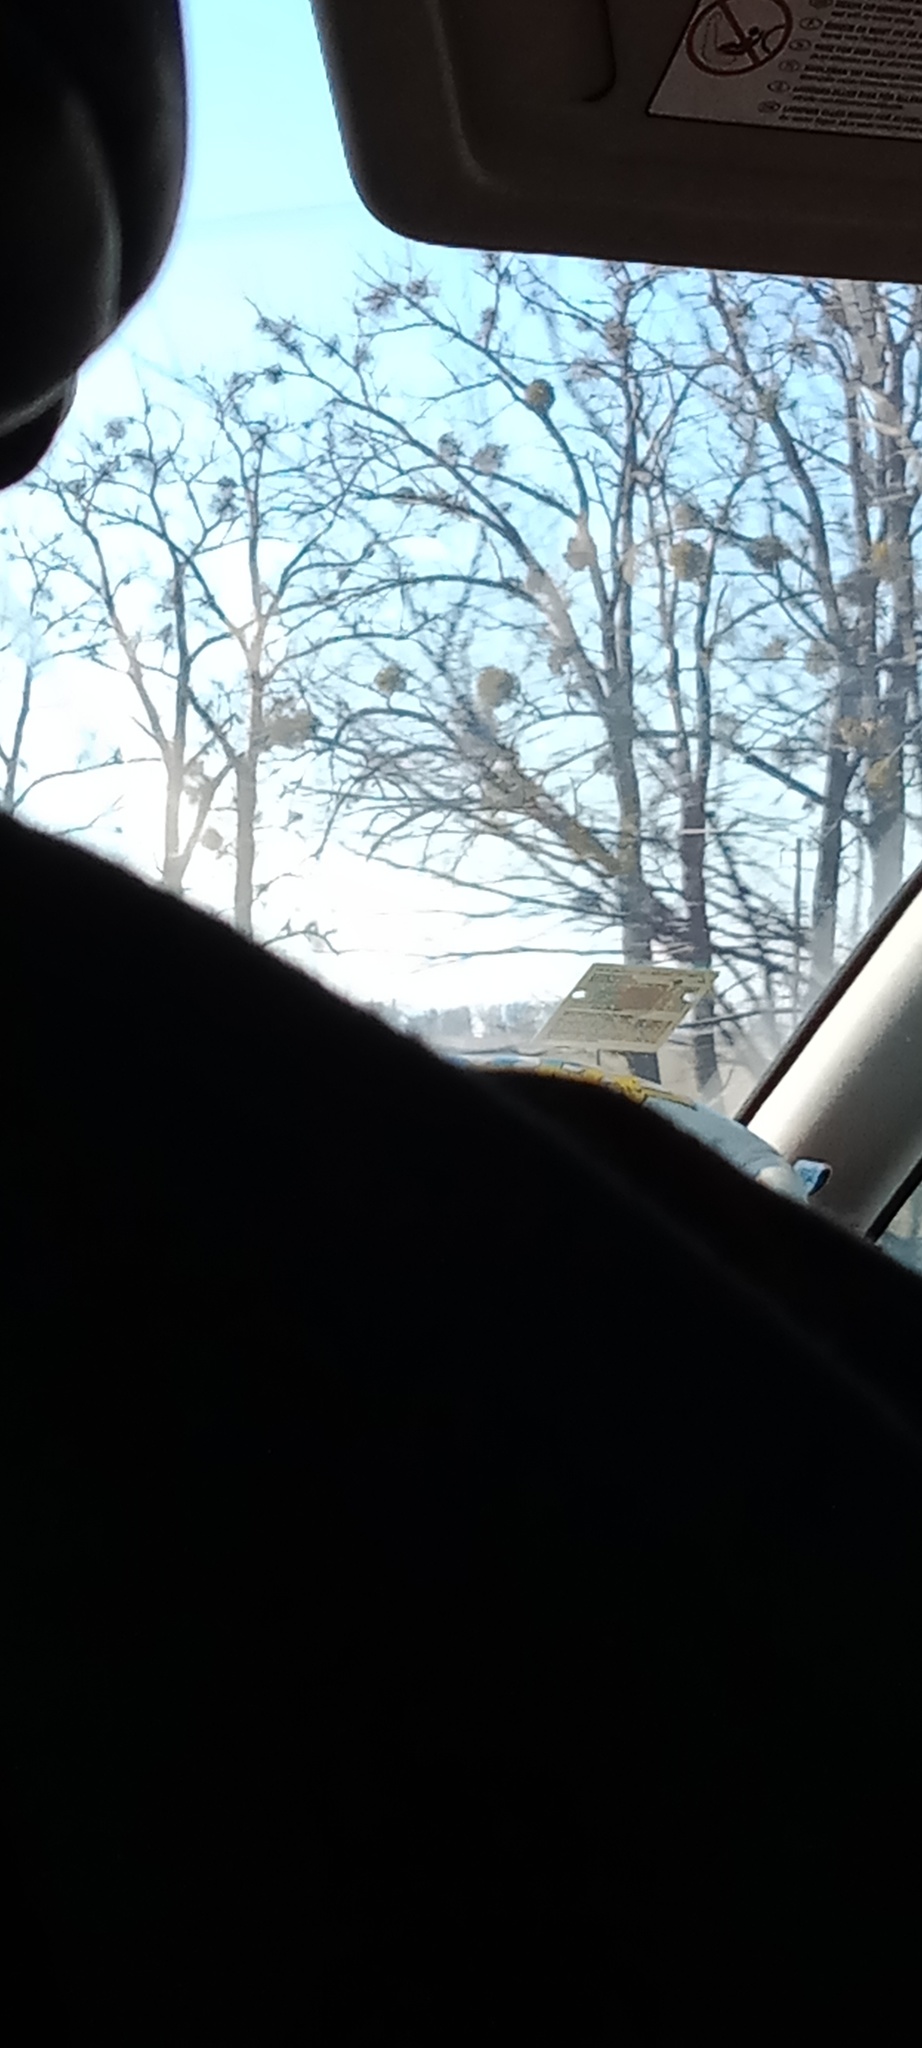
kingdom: Plantae
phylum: Tracheophyta
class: Magnoliopsida
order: Santalales
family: Viscaceae
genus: Viscum
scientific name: Viscum album
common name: Mistletoe
